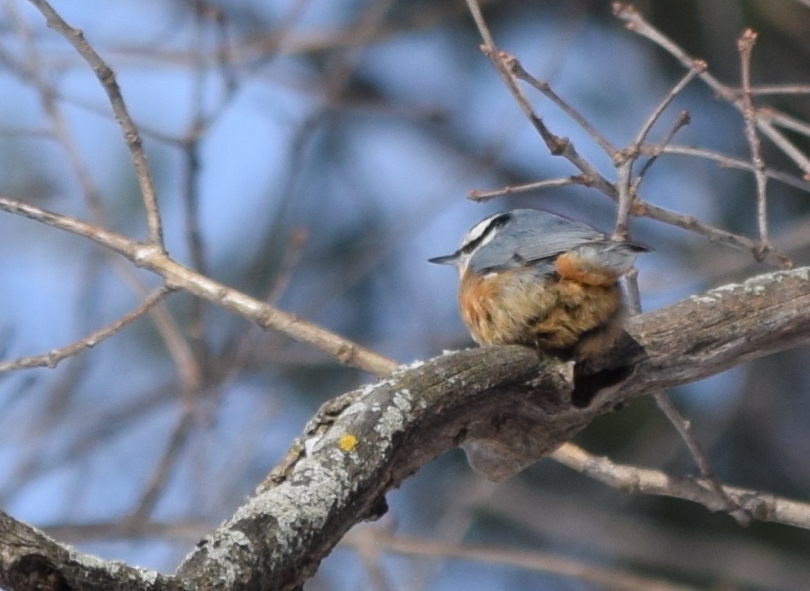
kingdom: Animalia
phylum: Chordata
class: Aves
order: Passeriformes
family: Sittidae
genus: Sitta
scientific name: Sitta canadensis
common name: Red-breasted nuthatch
